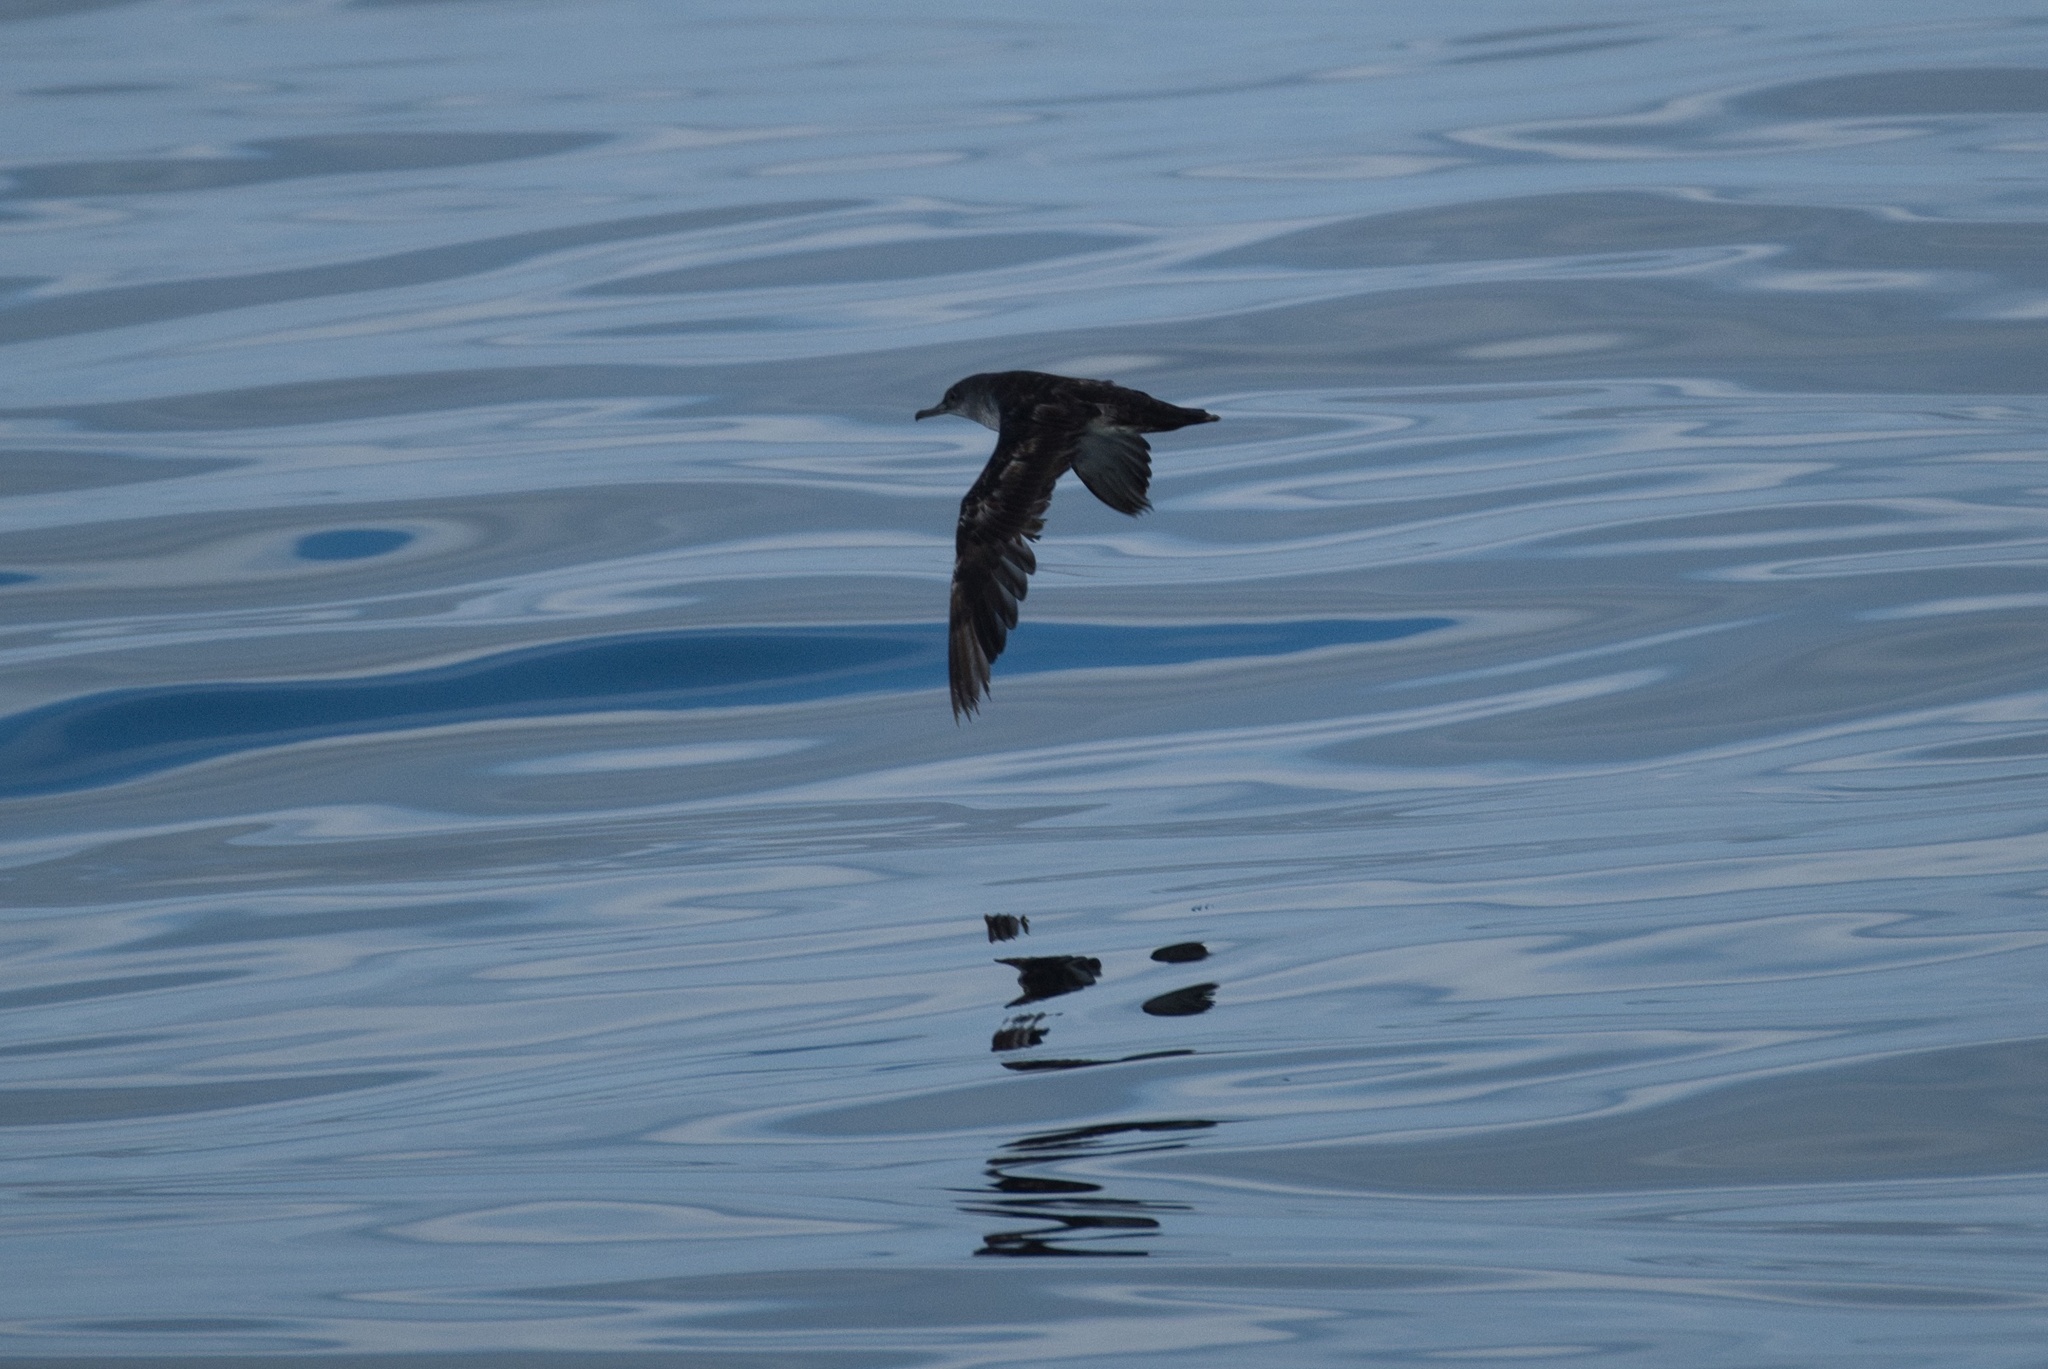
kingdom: Animalia
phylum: Chordata
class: Aves
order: Procellariiformes
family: Procellariidae
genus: Puffinus
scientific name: Puffinus opisthomelas
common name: Black-vented shearwater
